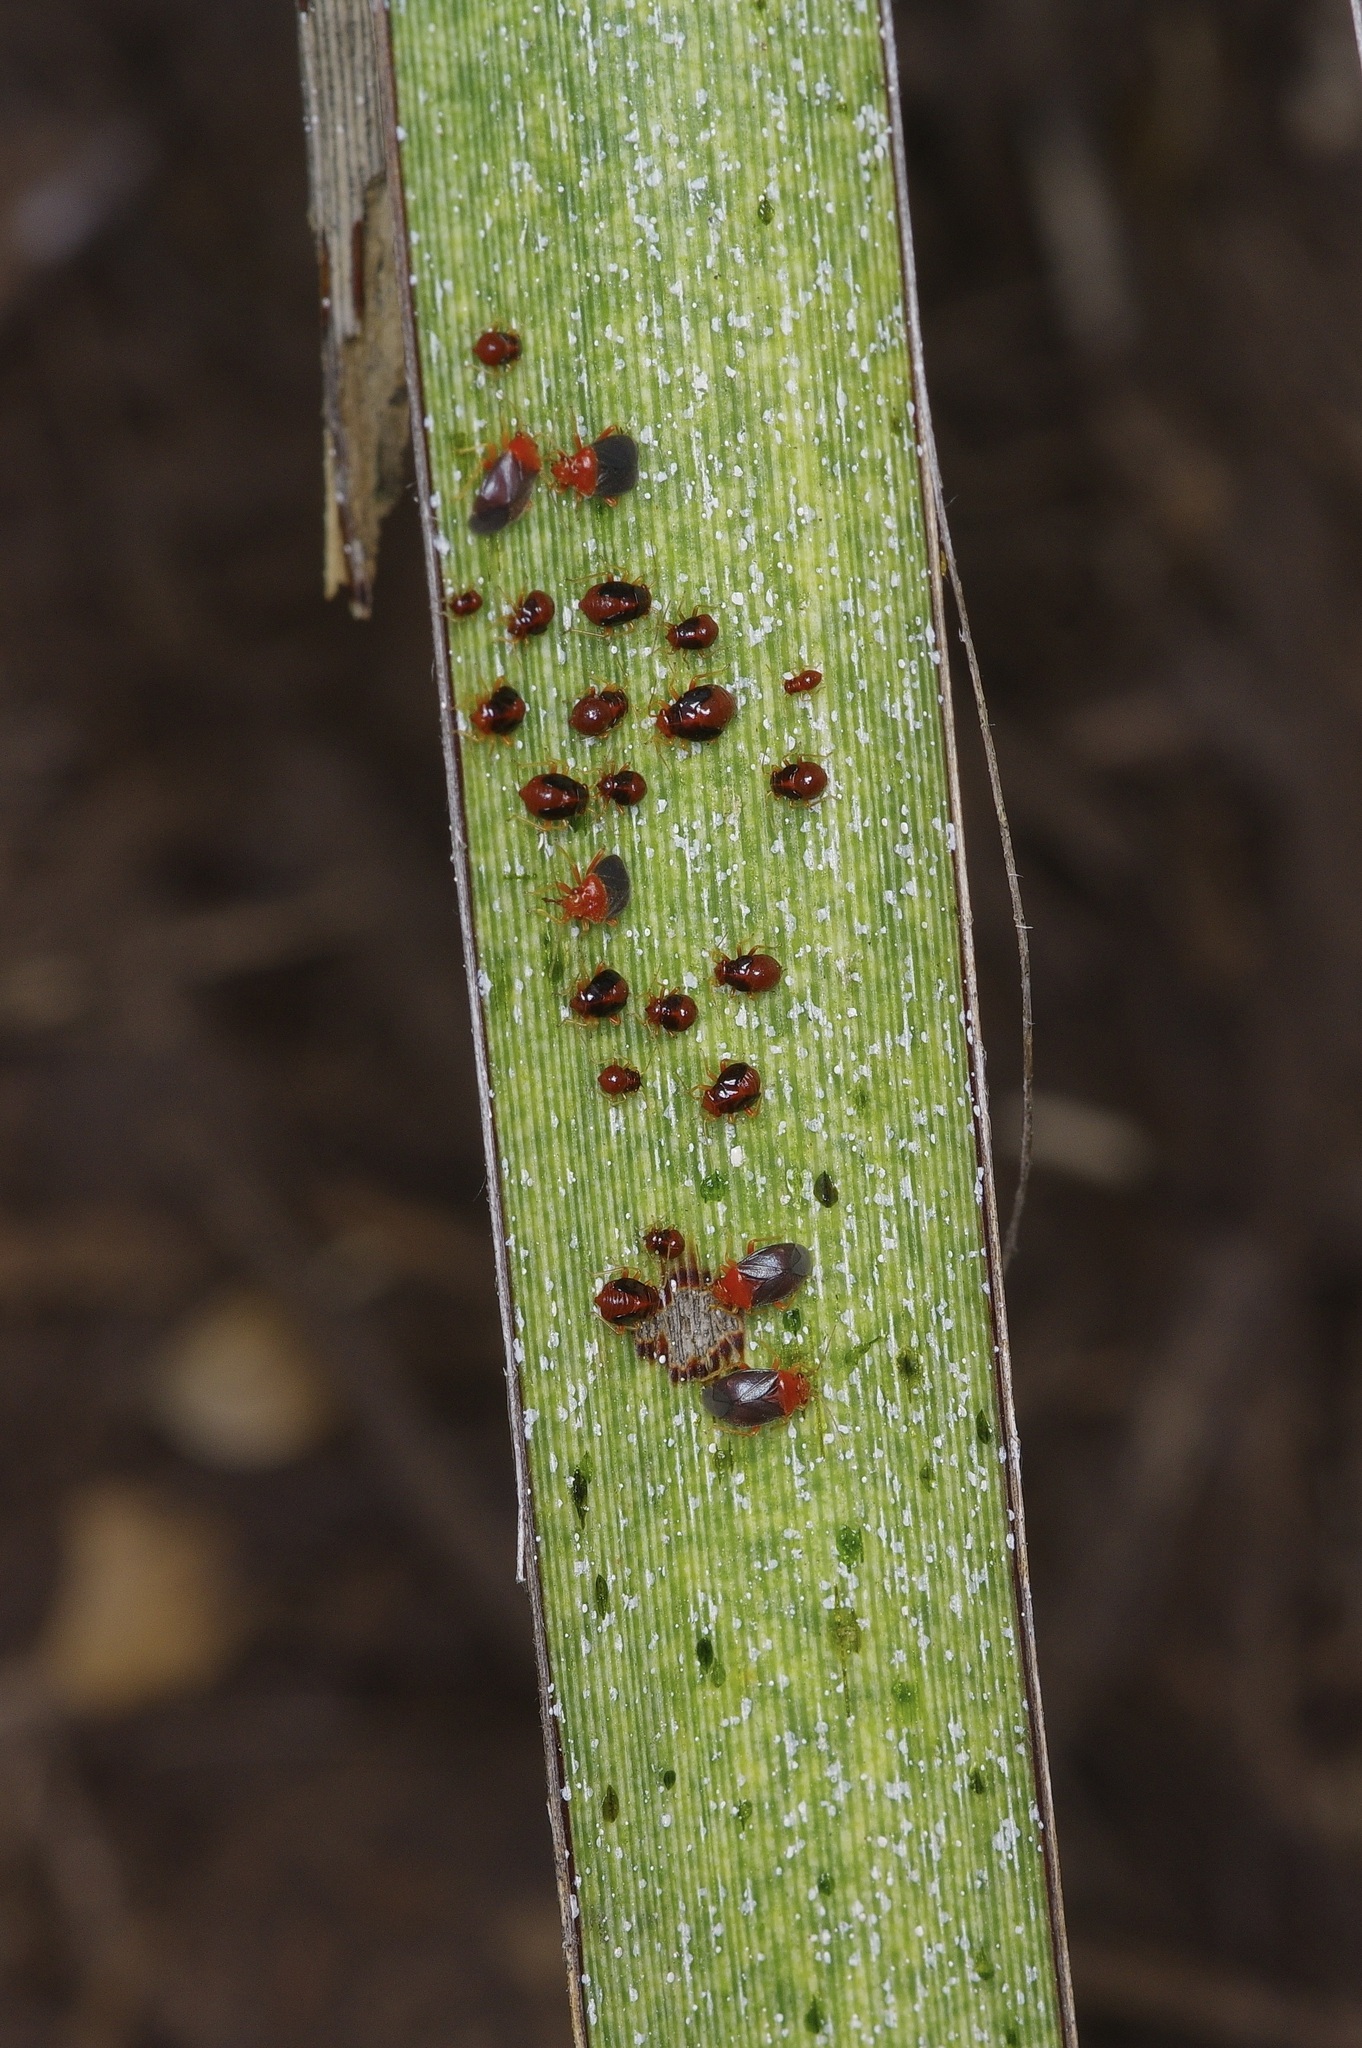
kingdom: Animalia
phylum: Arthropoda
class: Insecta
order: Hemiptera
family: Miridae
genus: Halticotoma
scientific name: Halticotoma valida
